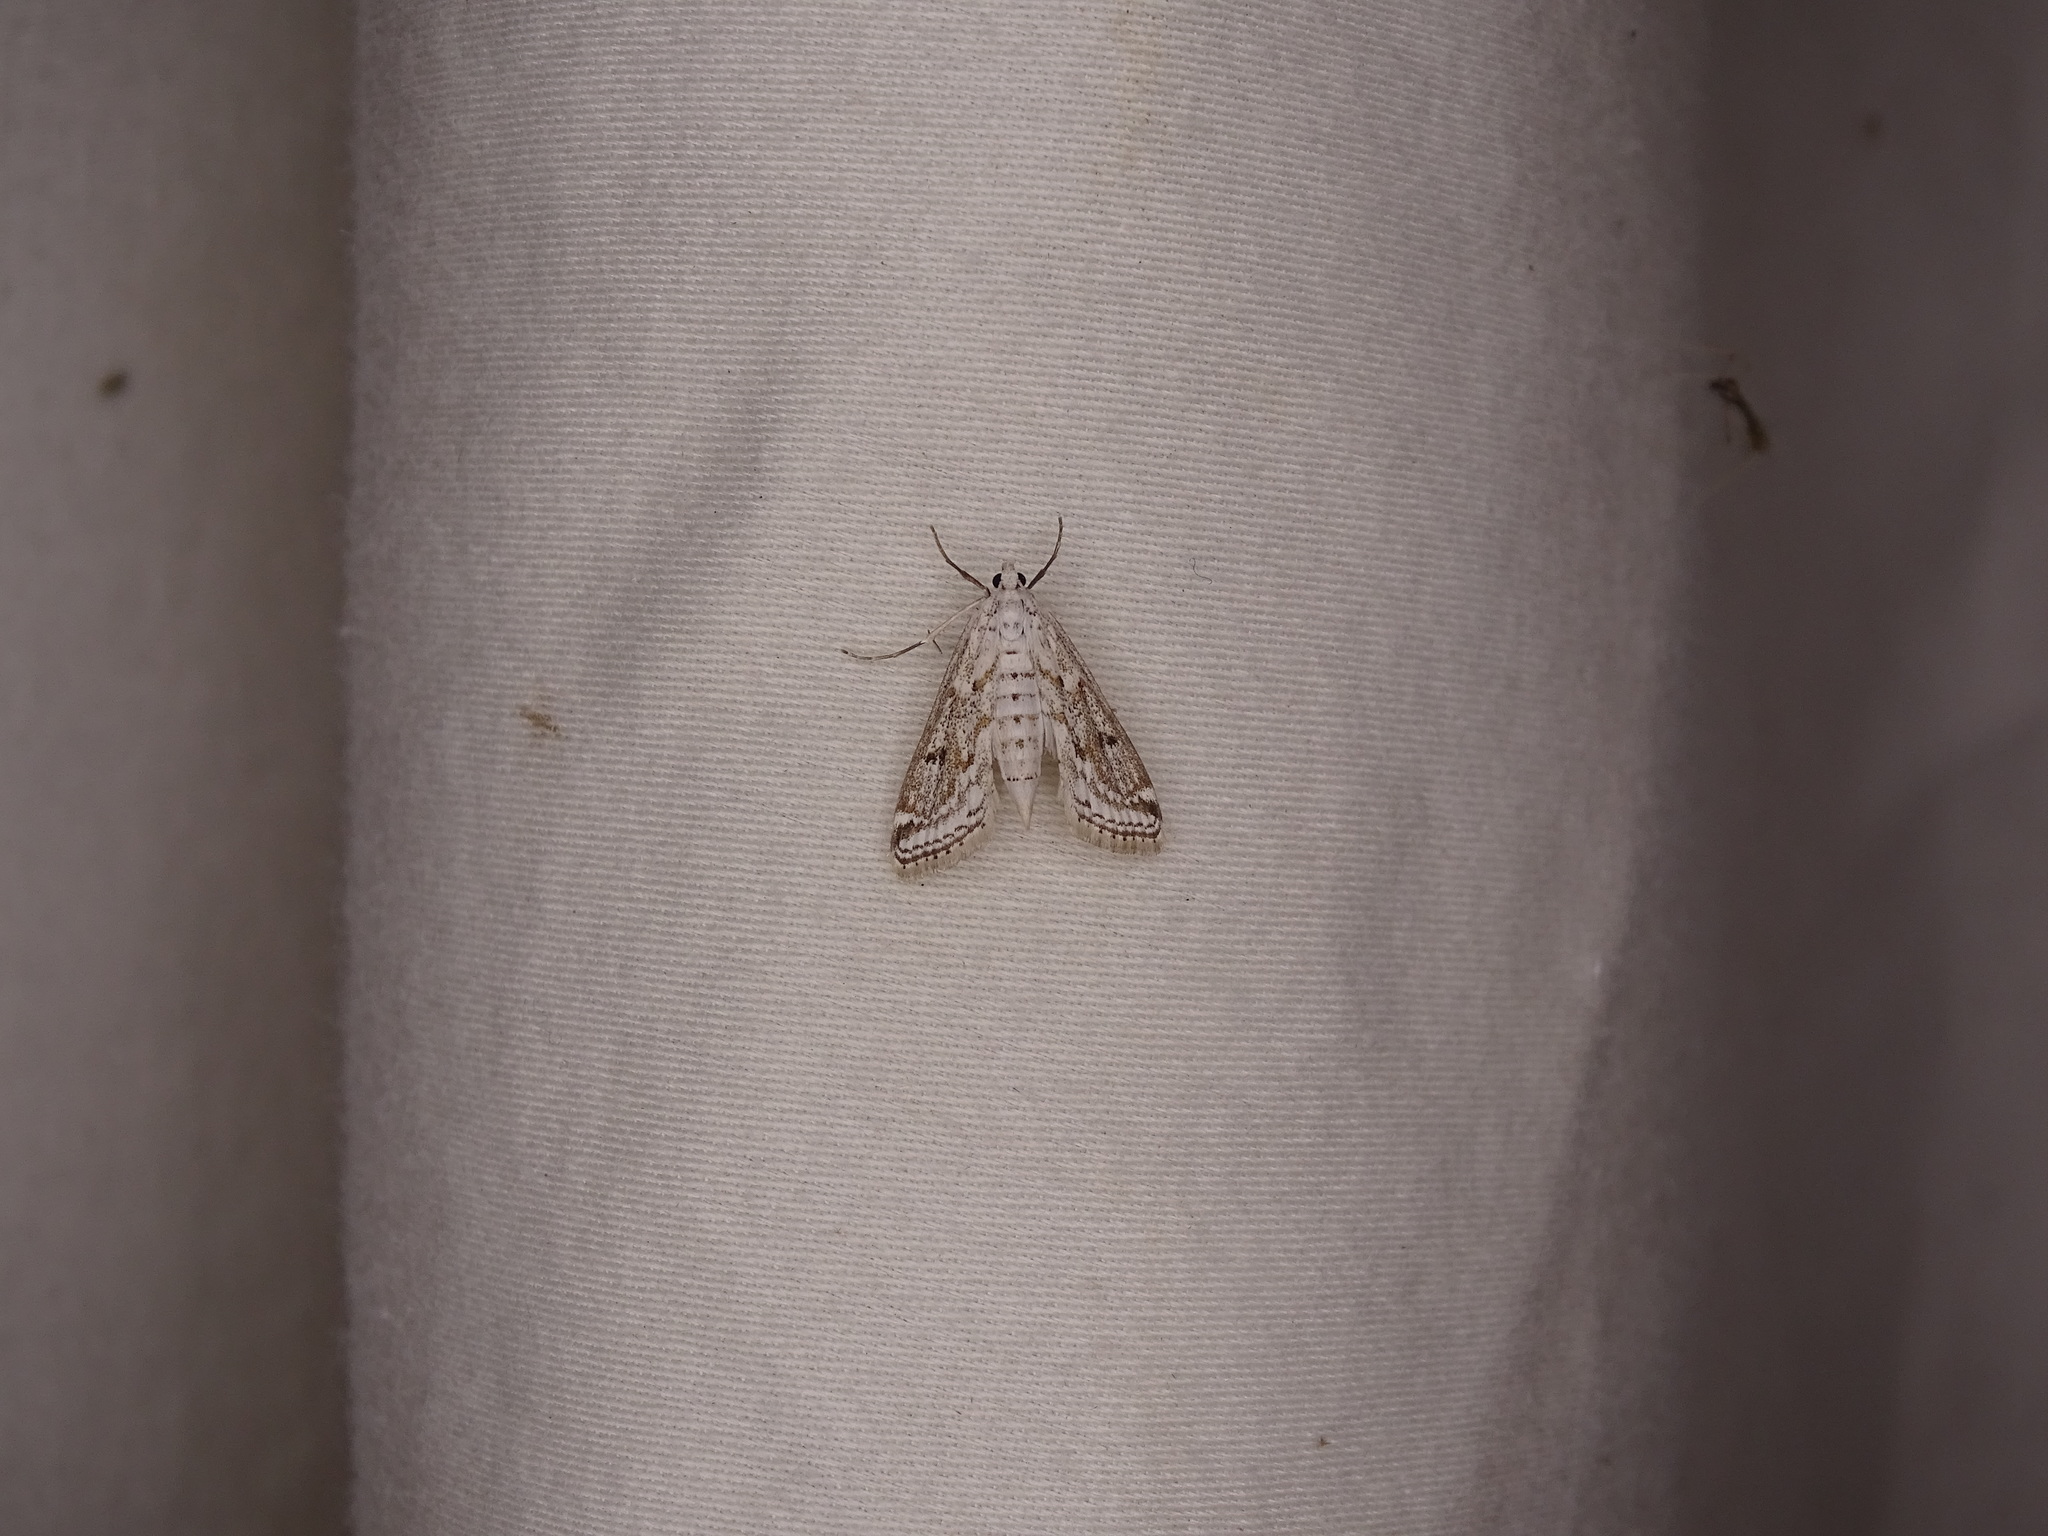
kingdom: Animalia
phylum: Arthropoda
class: Insecta
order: Lepidoptera
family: Crambidae
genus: Parapoynx
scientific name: Parapoynx allionealis
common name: Bladderwort casemaker
